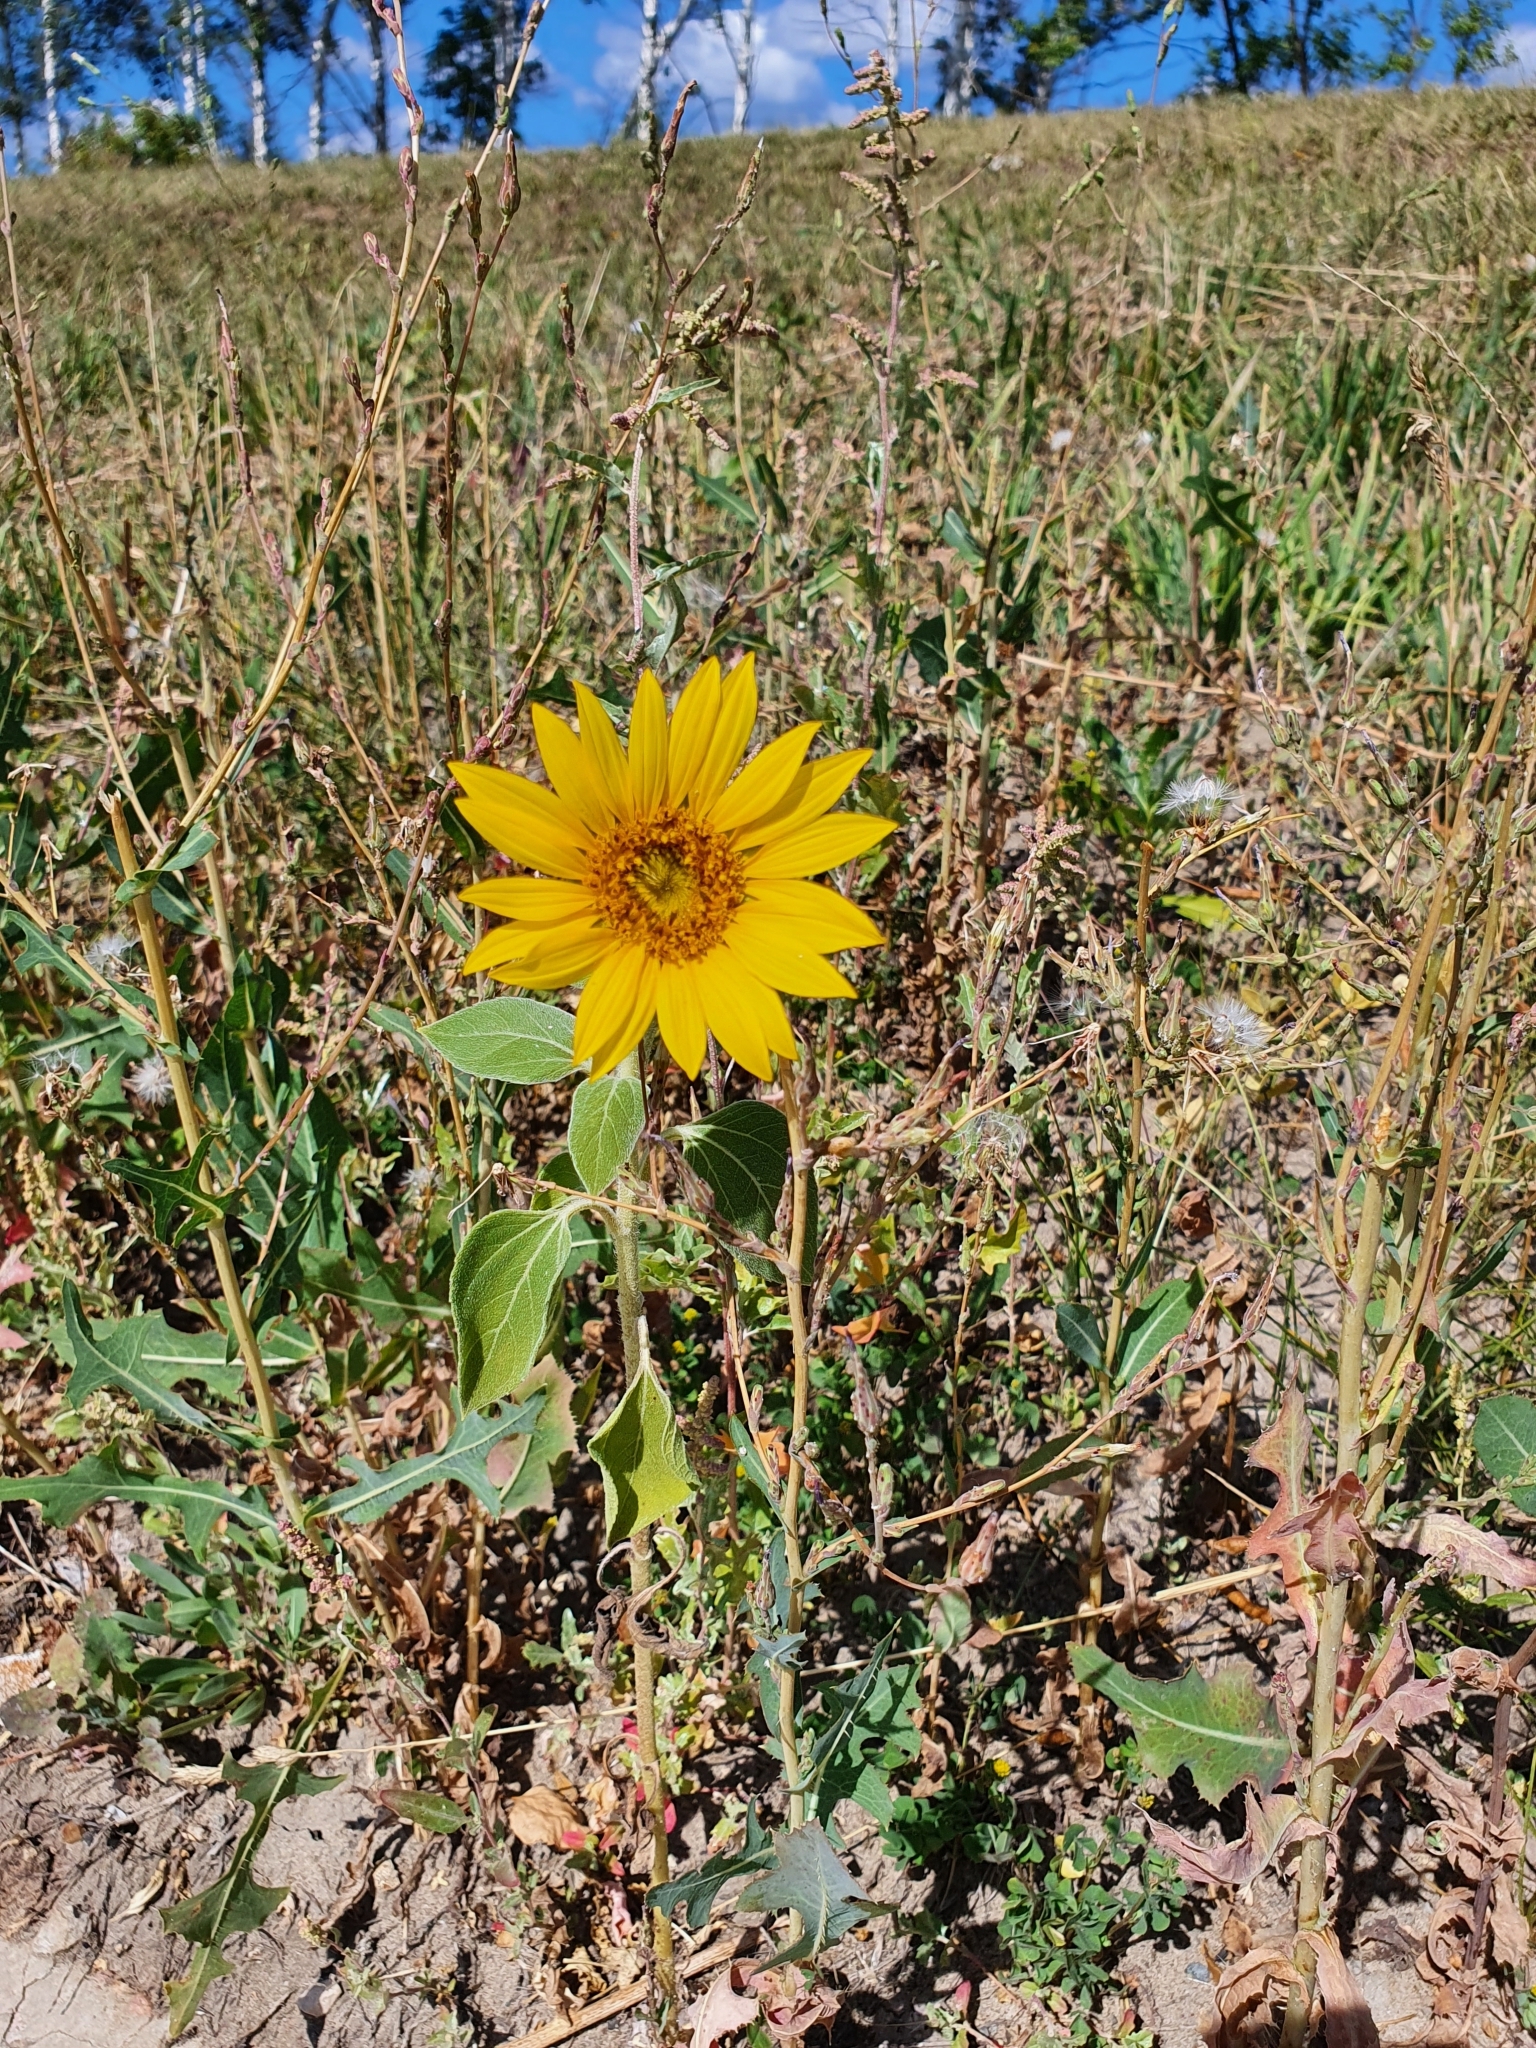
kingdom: Plantae
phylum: Tracheophyta
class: Magnoliopsida
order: Asterales
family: Asteraceae
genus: Helianthus
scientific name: Helianthus annuus
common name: Sunflower
